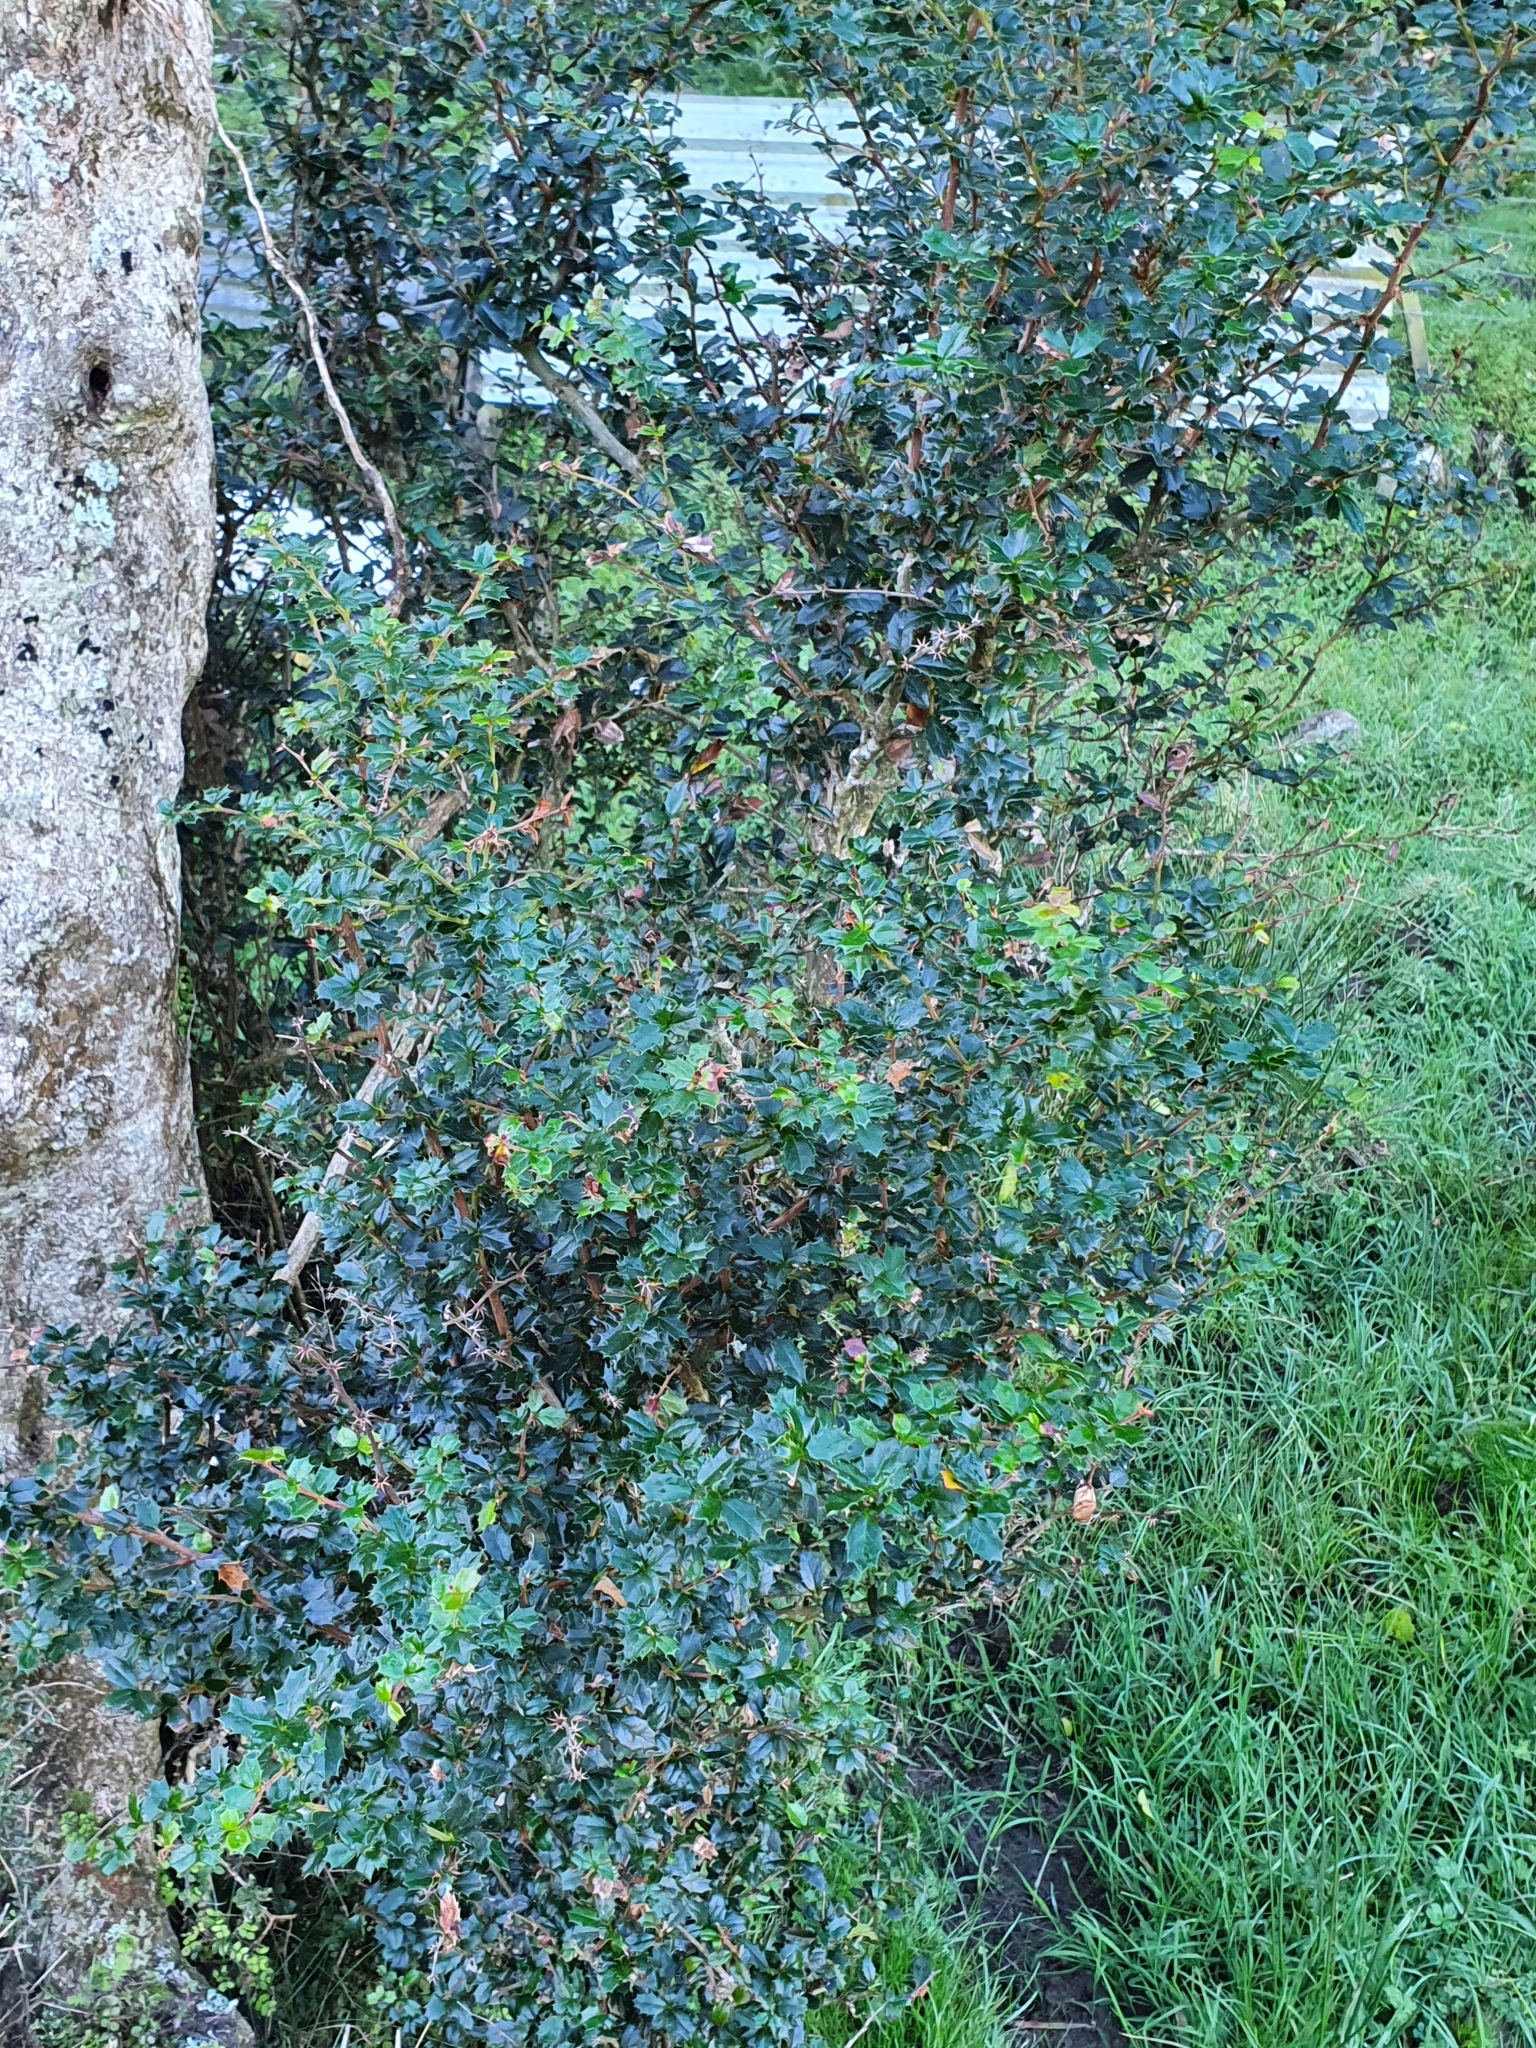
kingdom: Plantae
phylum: Tracheophyta
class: Magnoliopsida
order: Ranunculales
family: Berberidaceae
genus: Berberis
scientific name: Berberis darwinii
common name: Darwin's barberry
